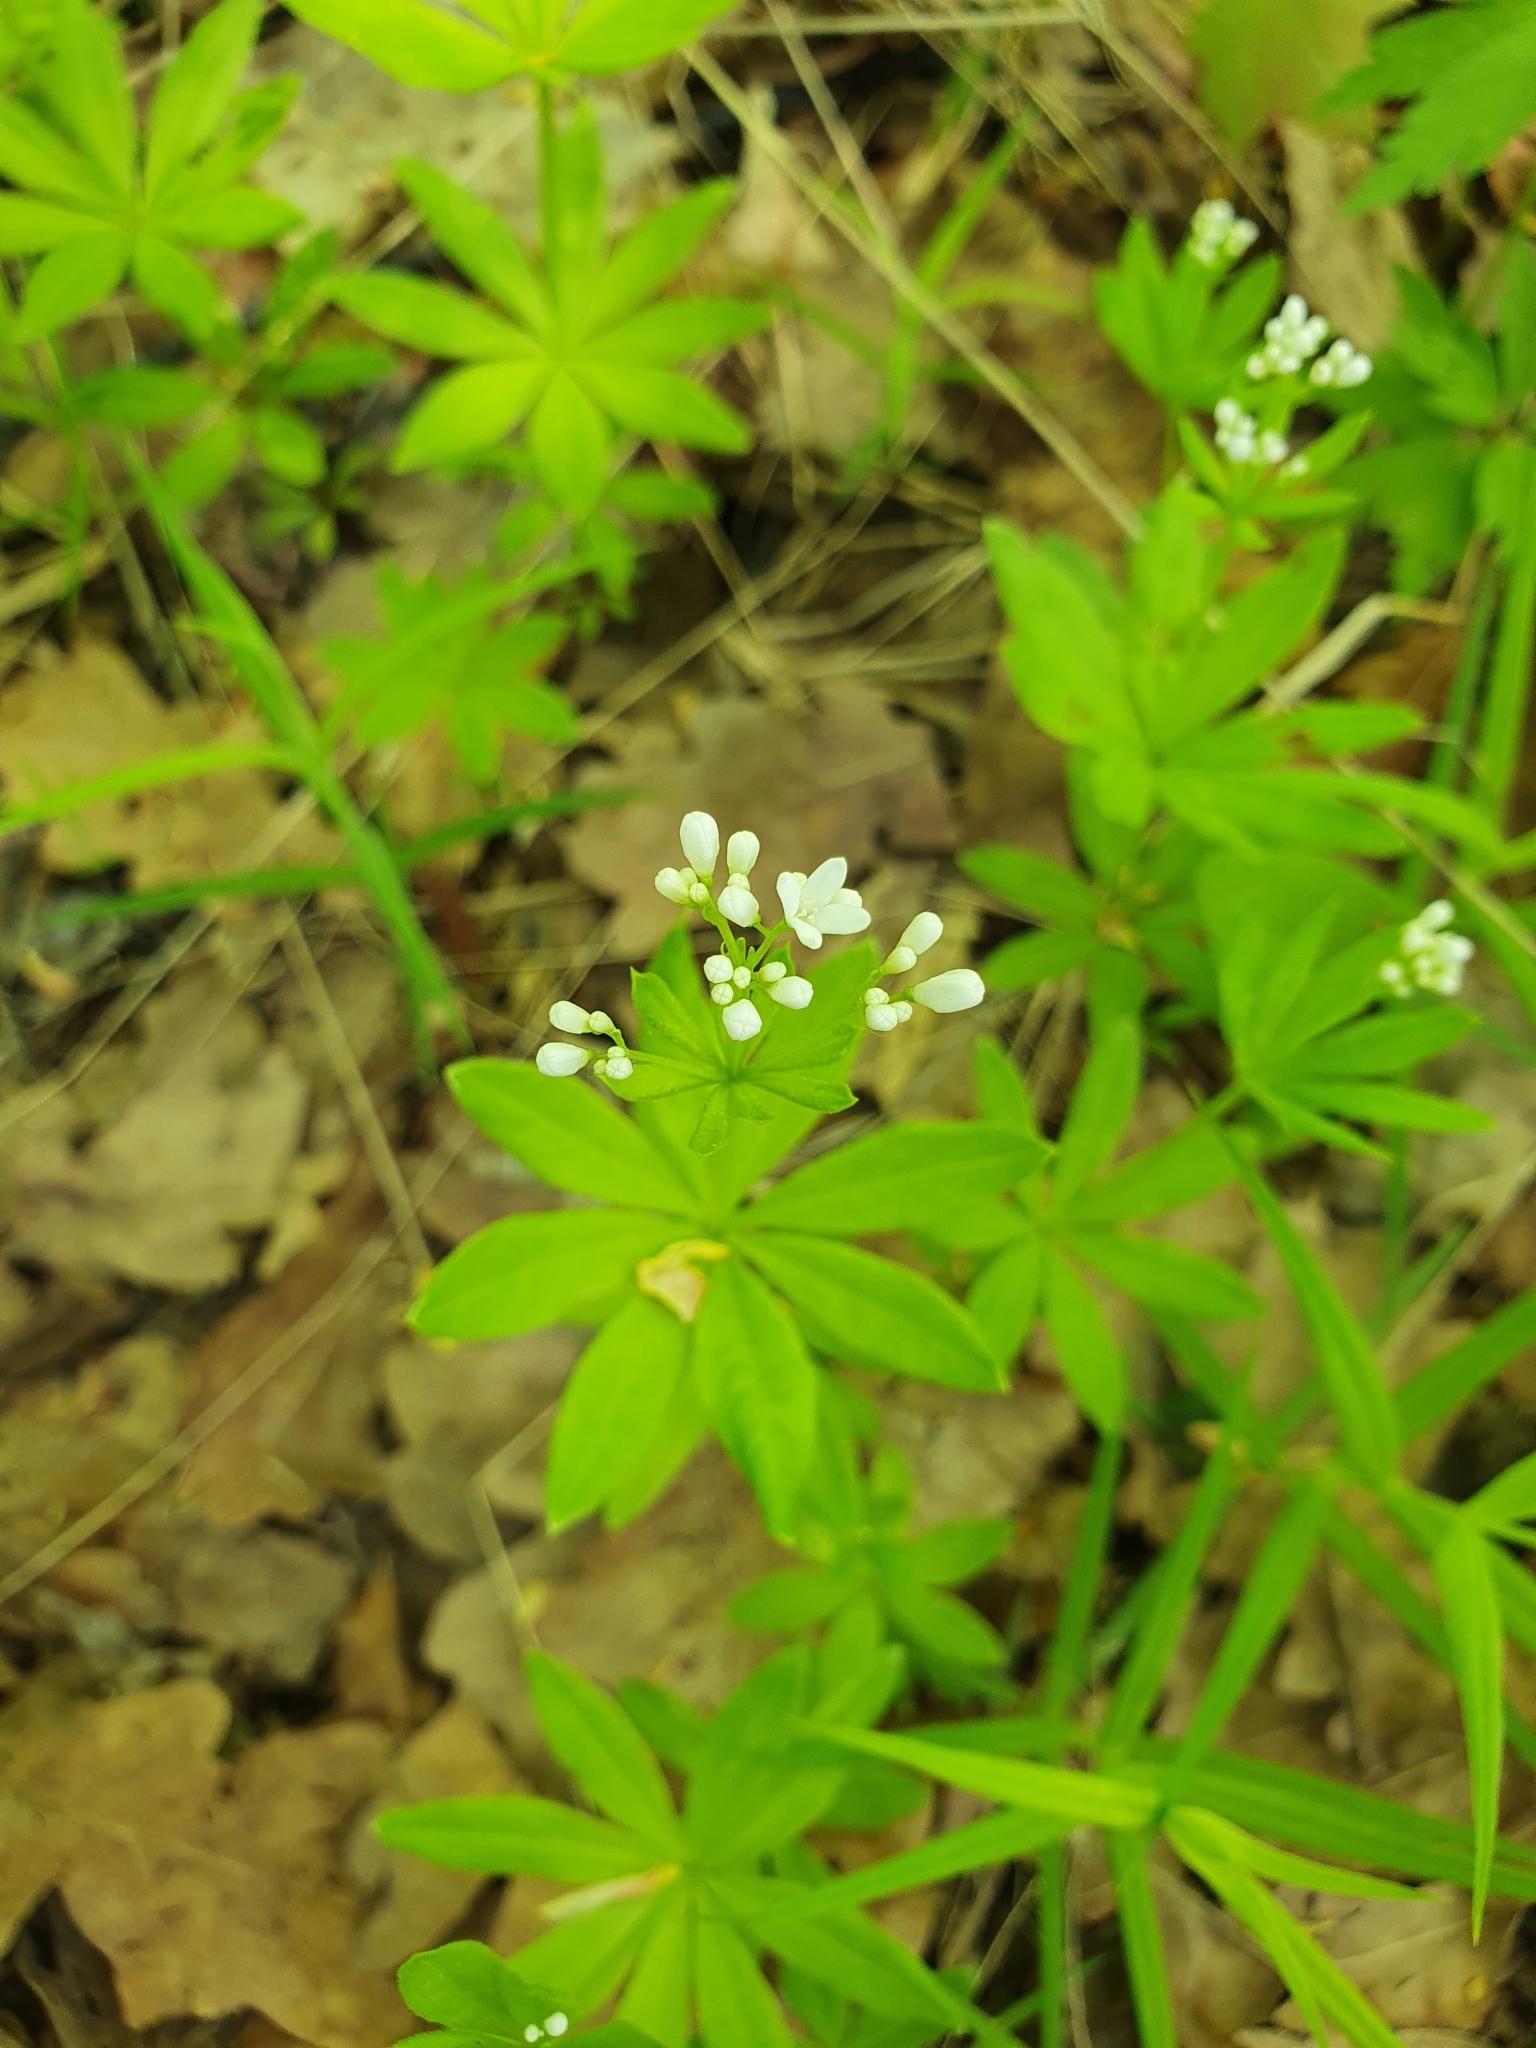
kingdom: Plantae
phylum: Tracheophyta
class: Magnoliopsida
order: Gentianales
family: Rubiaceae
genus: Galium
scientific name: Galium odoratum
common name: Sweet woodruff
